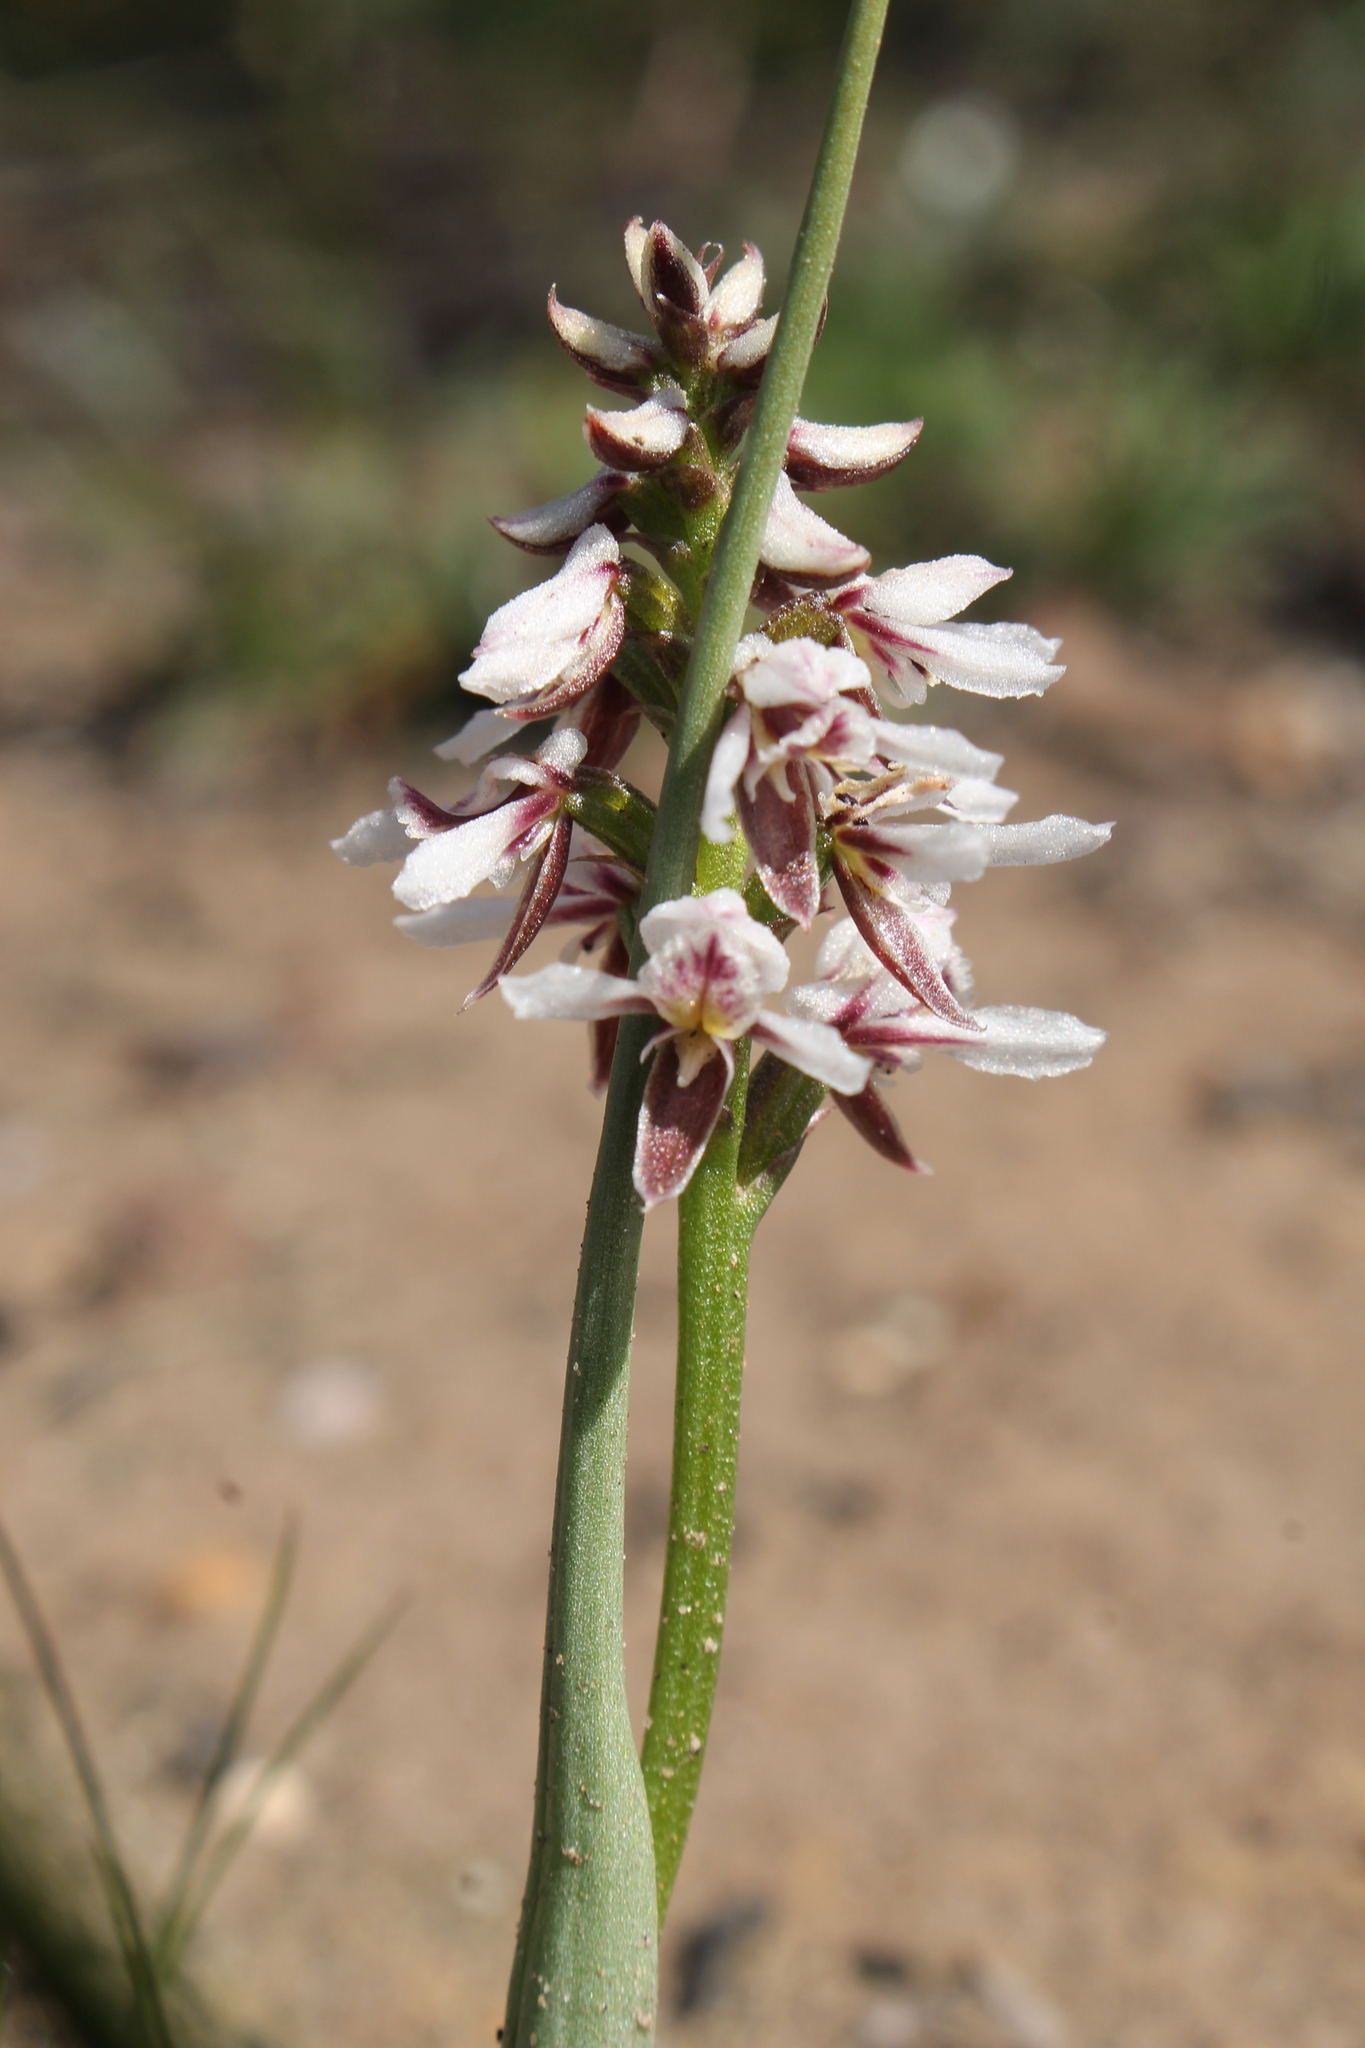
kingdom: Plantae
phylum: Tracheophyta
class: Liliopsida
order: Asparagales
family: Orchidaceae
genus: Prasophyllum
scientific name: Prasophyllum cucullatum
